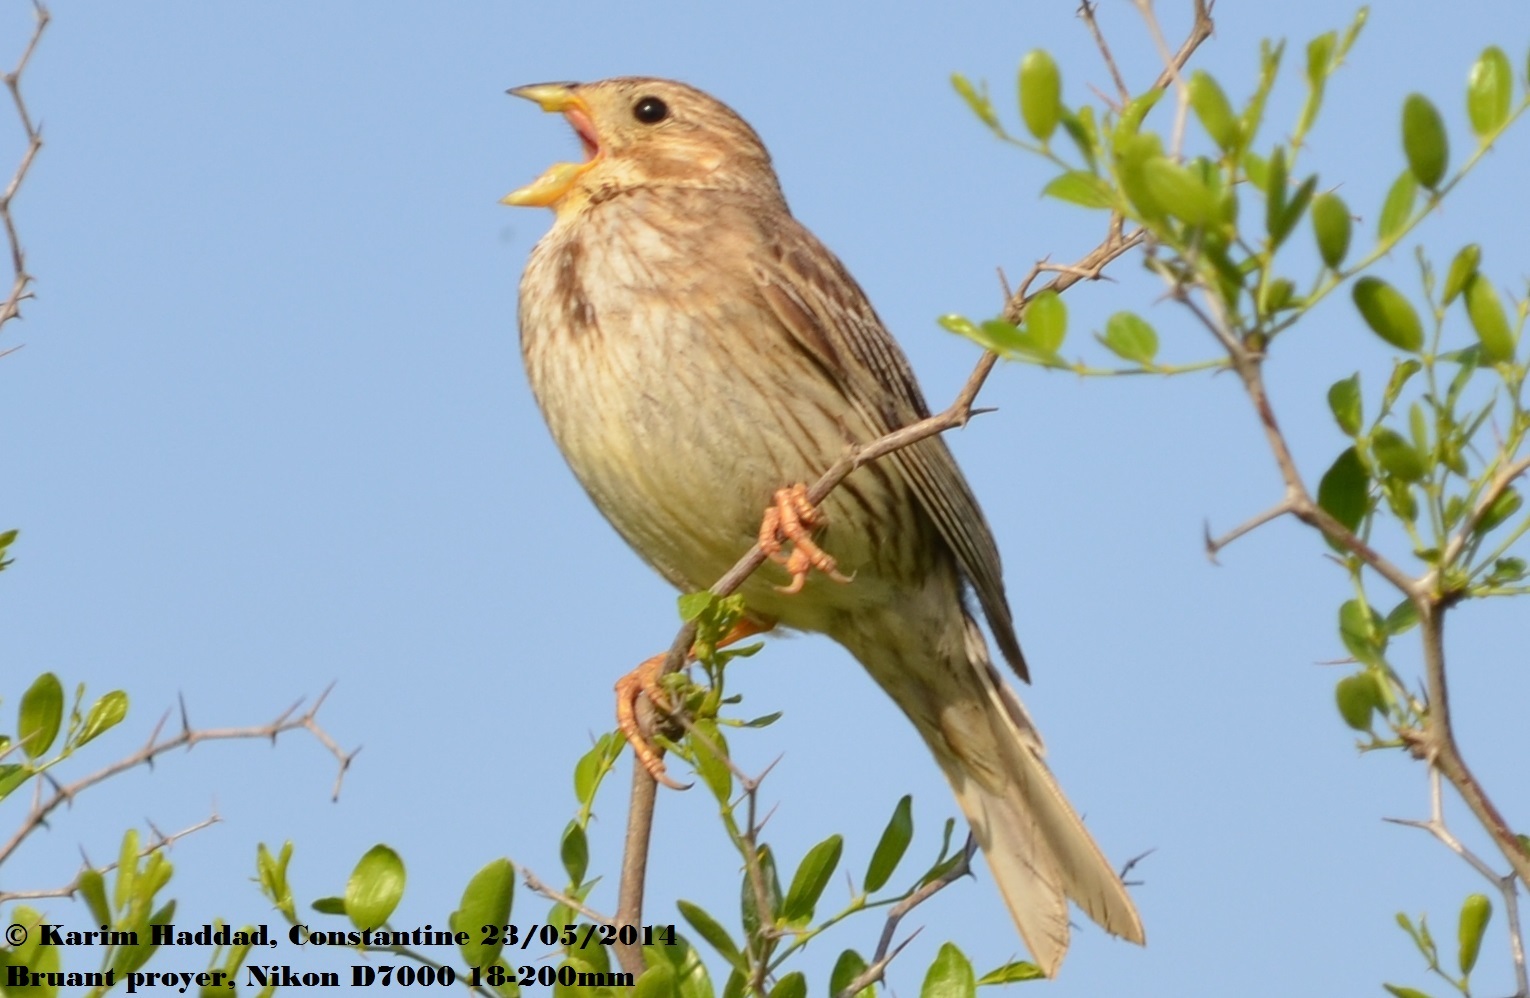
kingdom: Animalia
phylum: Chordata
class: Aves
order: Passeriformes
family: Emberizidae
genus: Emberiza
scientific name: Emberiza calandra
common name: Corn bunting
